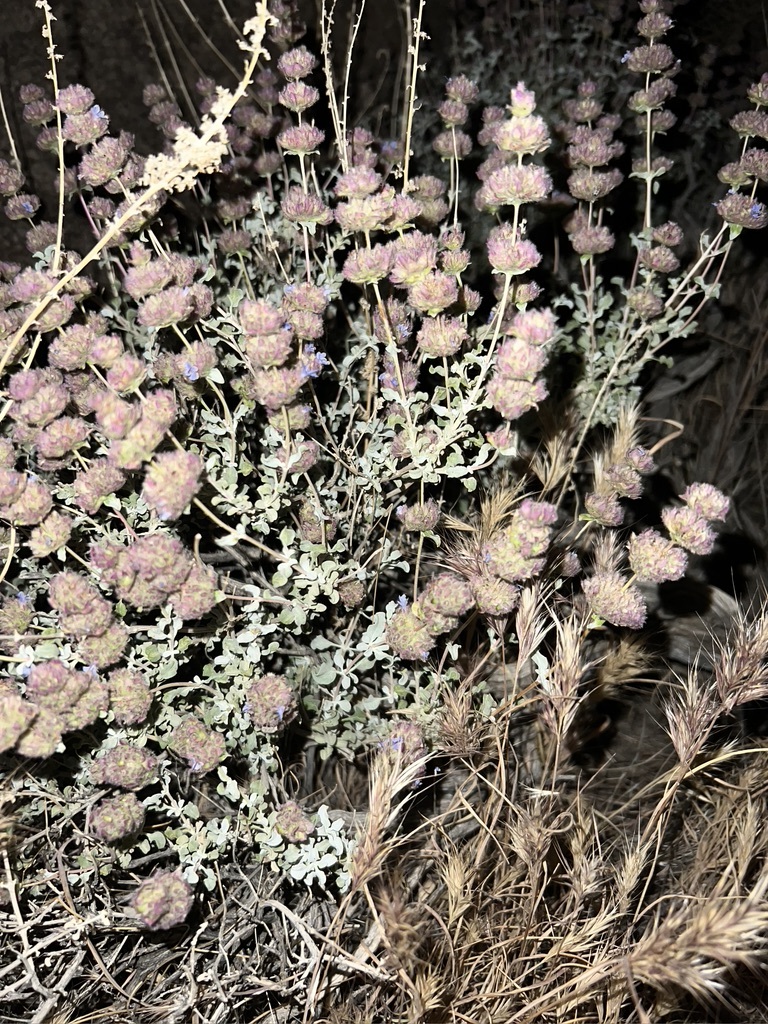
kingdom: Plantae
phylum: Tracheophyta
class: Magnoliopsida
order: Lamiales
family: Lamiaceae
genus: Salvia
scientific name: Salvia dorrii
